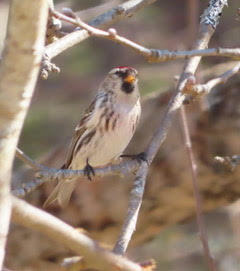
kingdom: Animalia
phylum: Chordata
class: Aves
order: Passeriformes
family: Fringillidae
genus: Acanthis
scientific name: Acanthis flammea
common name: Common redpoll
